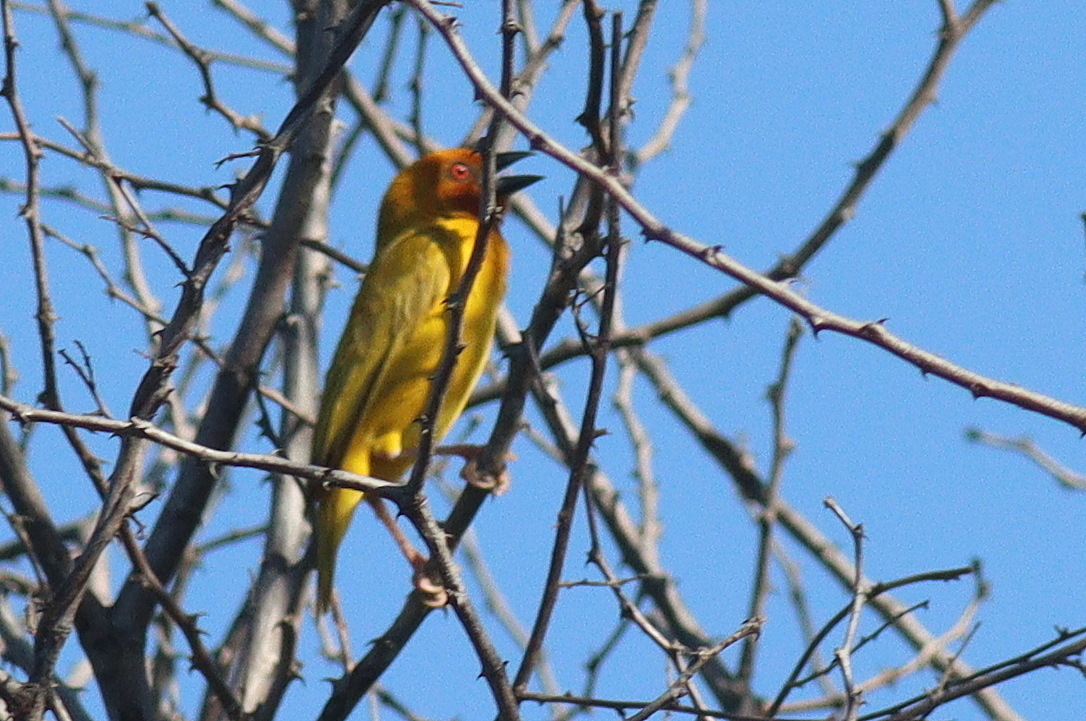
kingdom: Animalia
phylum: Chordata
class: Aves
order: Passeriformes
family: Ploceidae
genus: Ploceus
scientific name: Ploceus subaureus
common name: Yellow weaver
